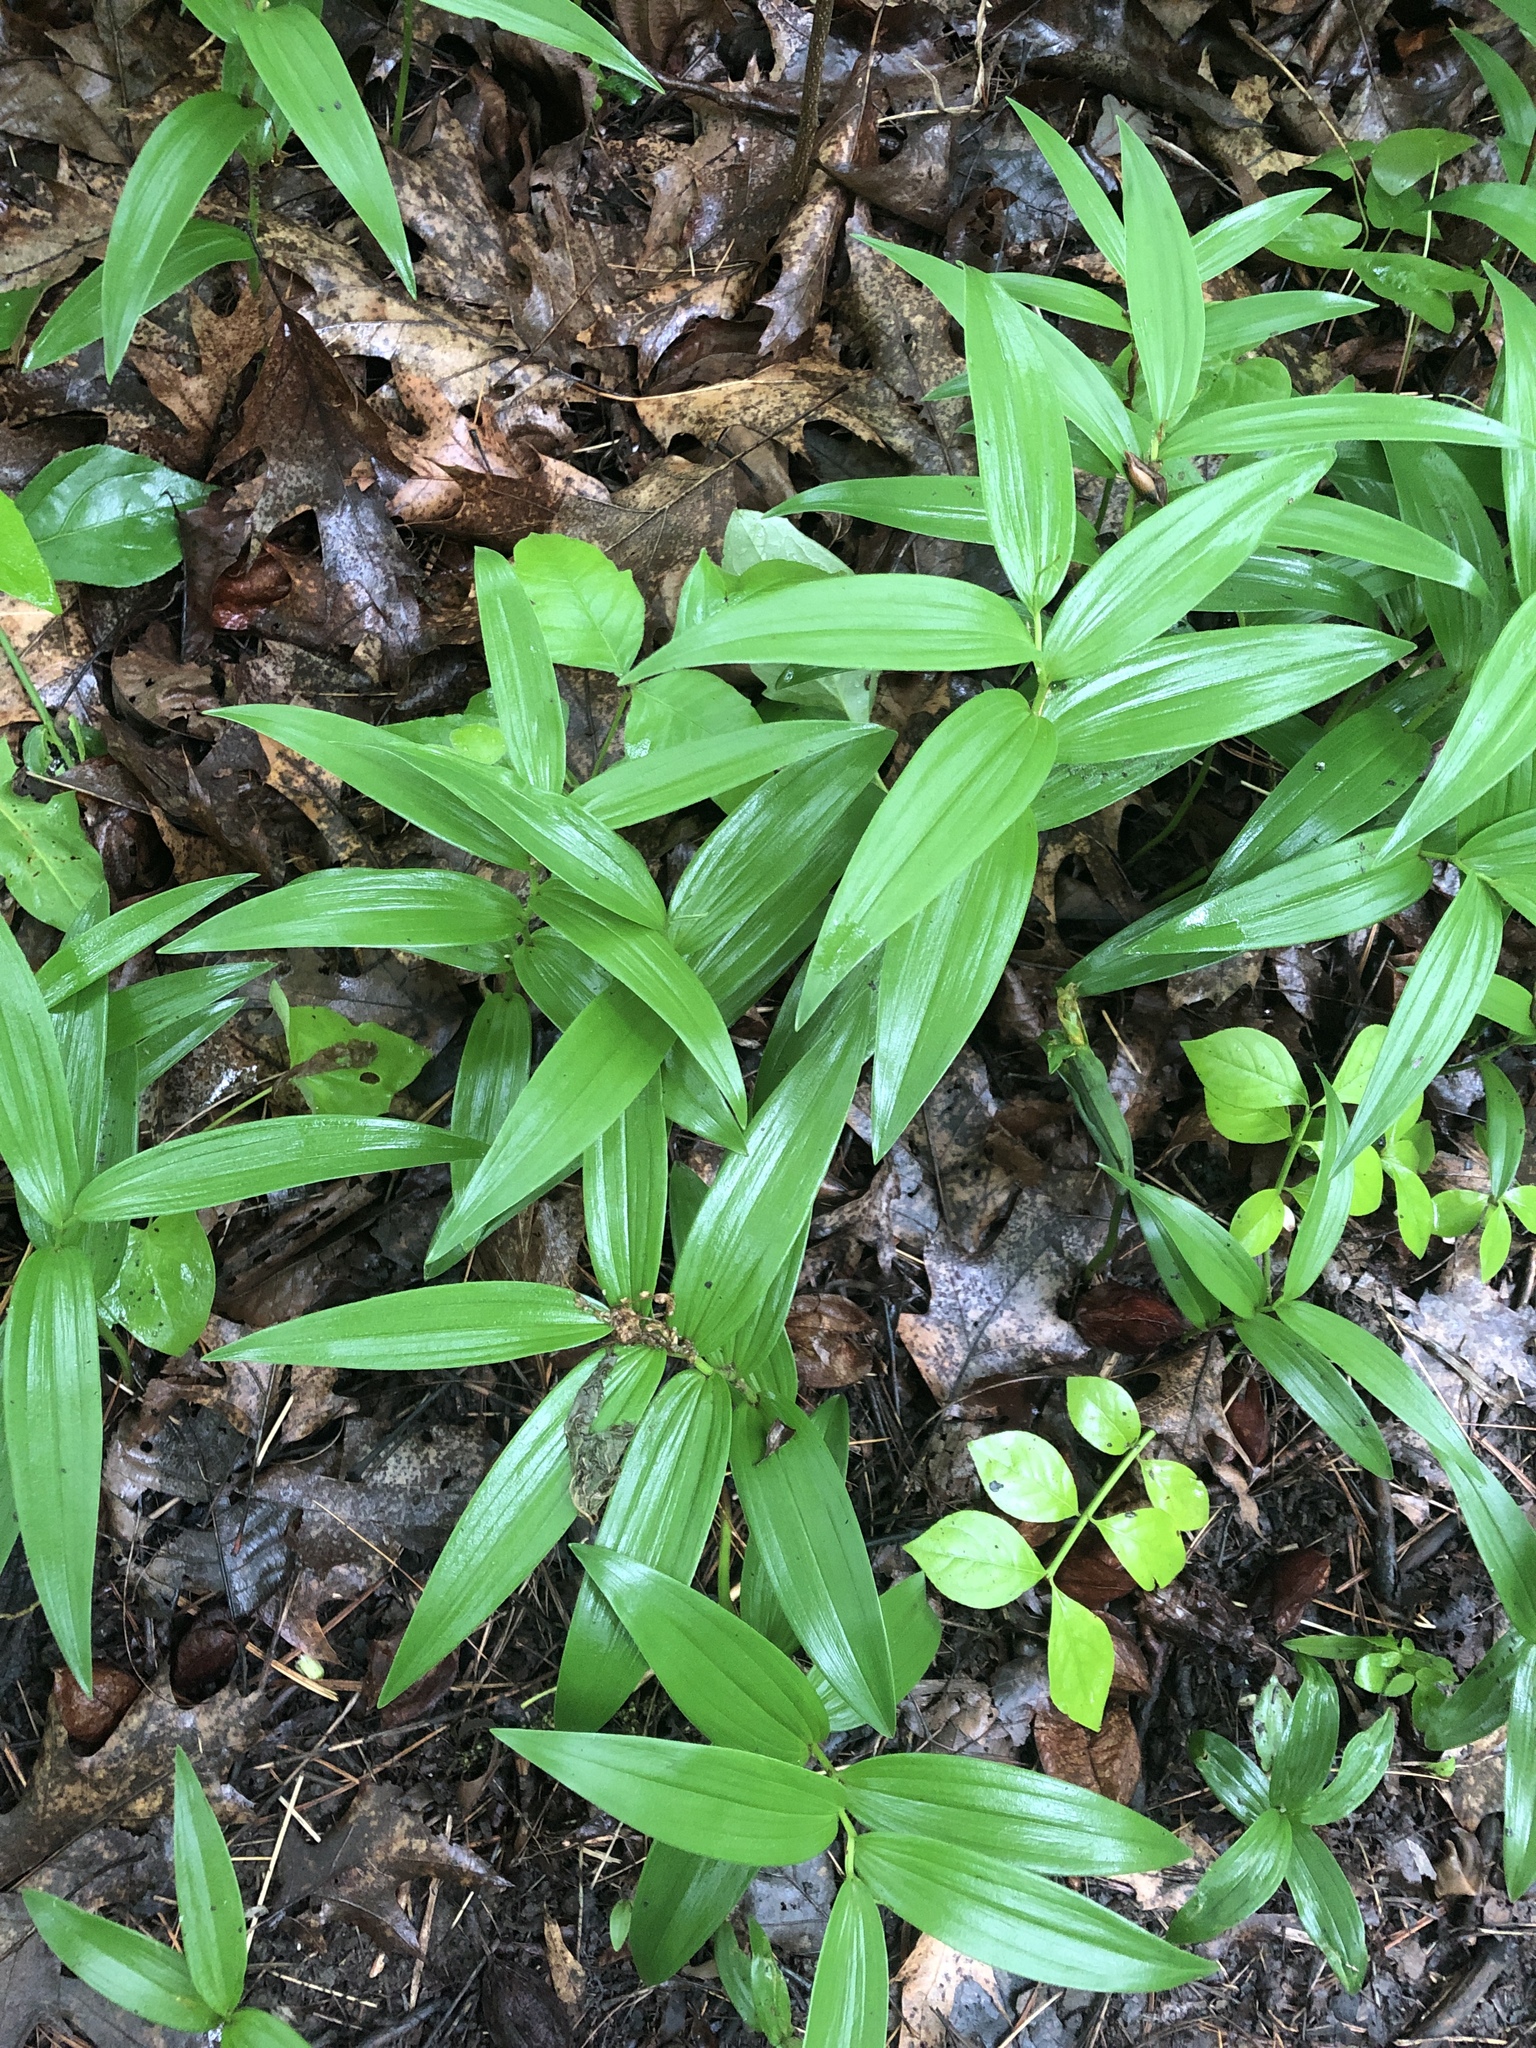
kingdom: Plantae
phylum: Tracheophyta
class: Liliopsida
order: Asparagales
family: Asparagaceae
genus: Maianthemum
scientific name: Maianthemum stellatum
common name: Little false solomon's seal
